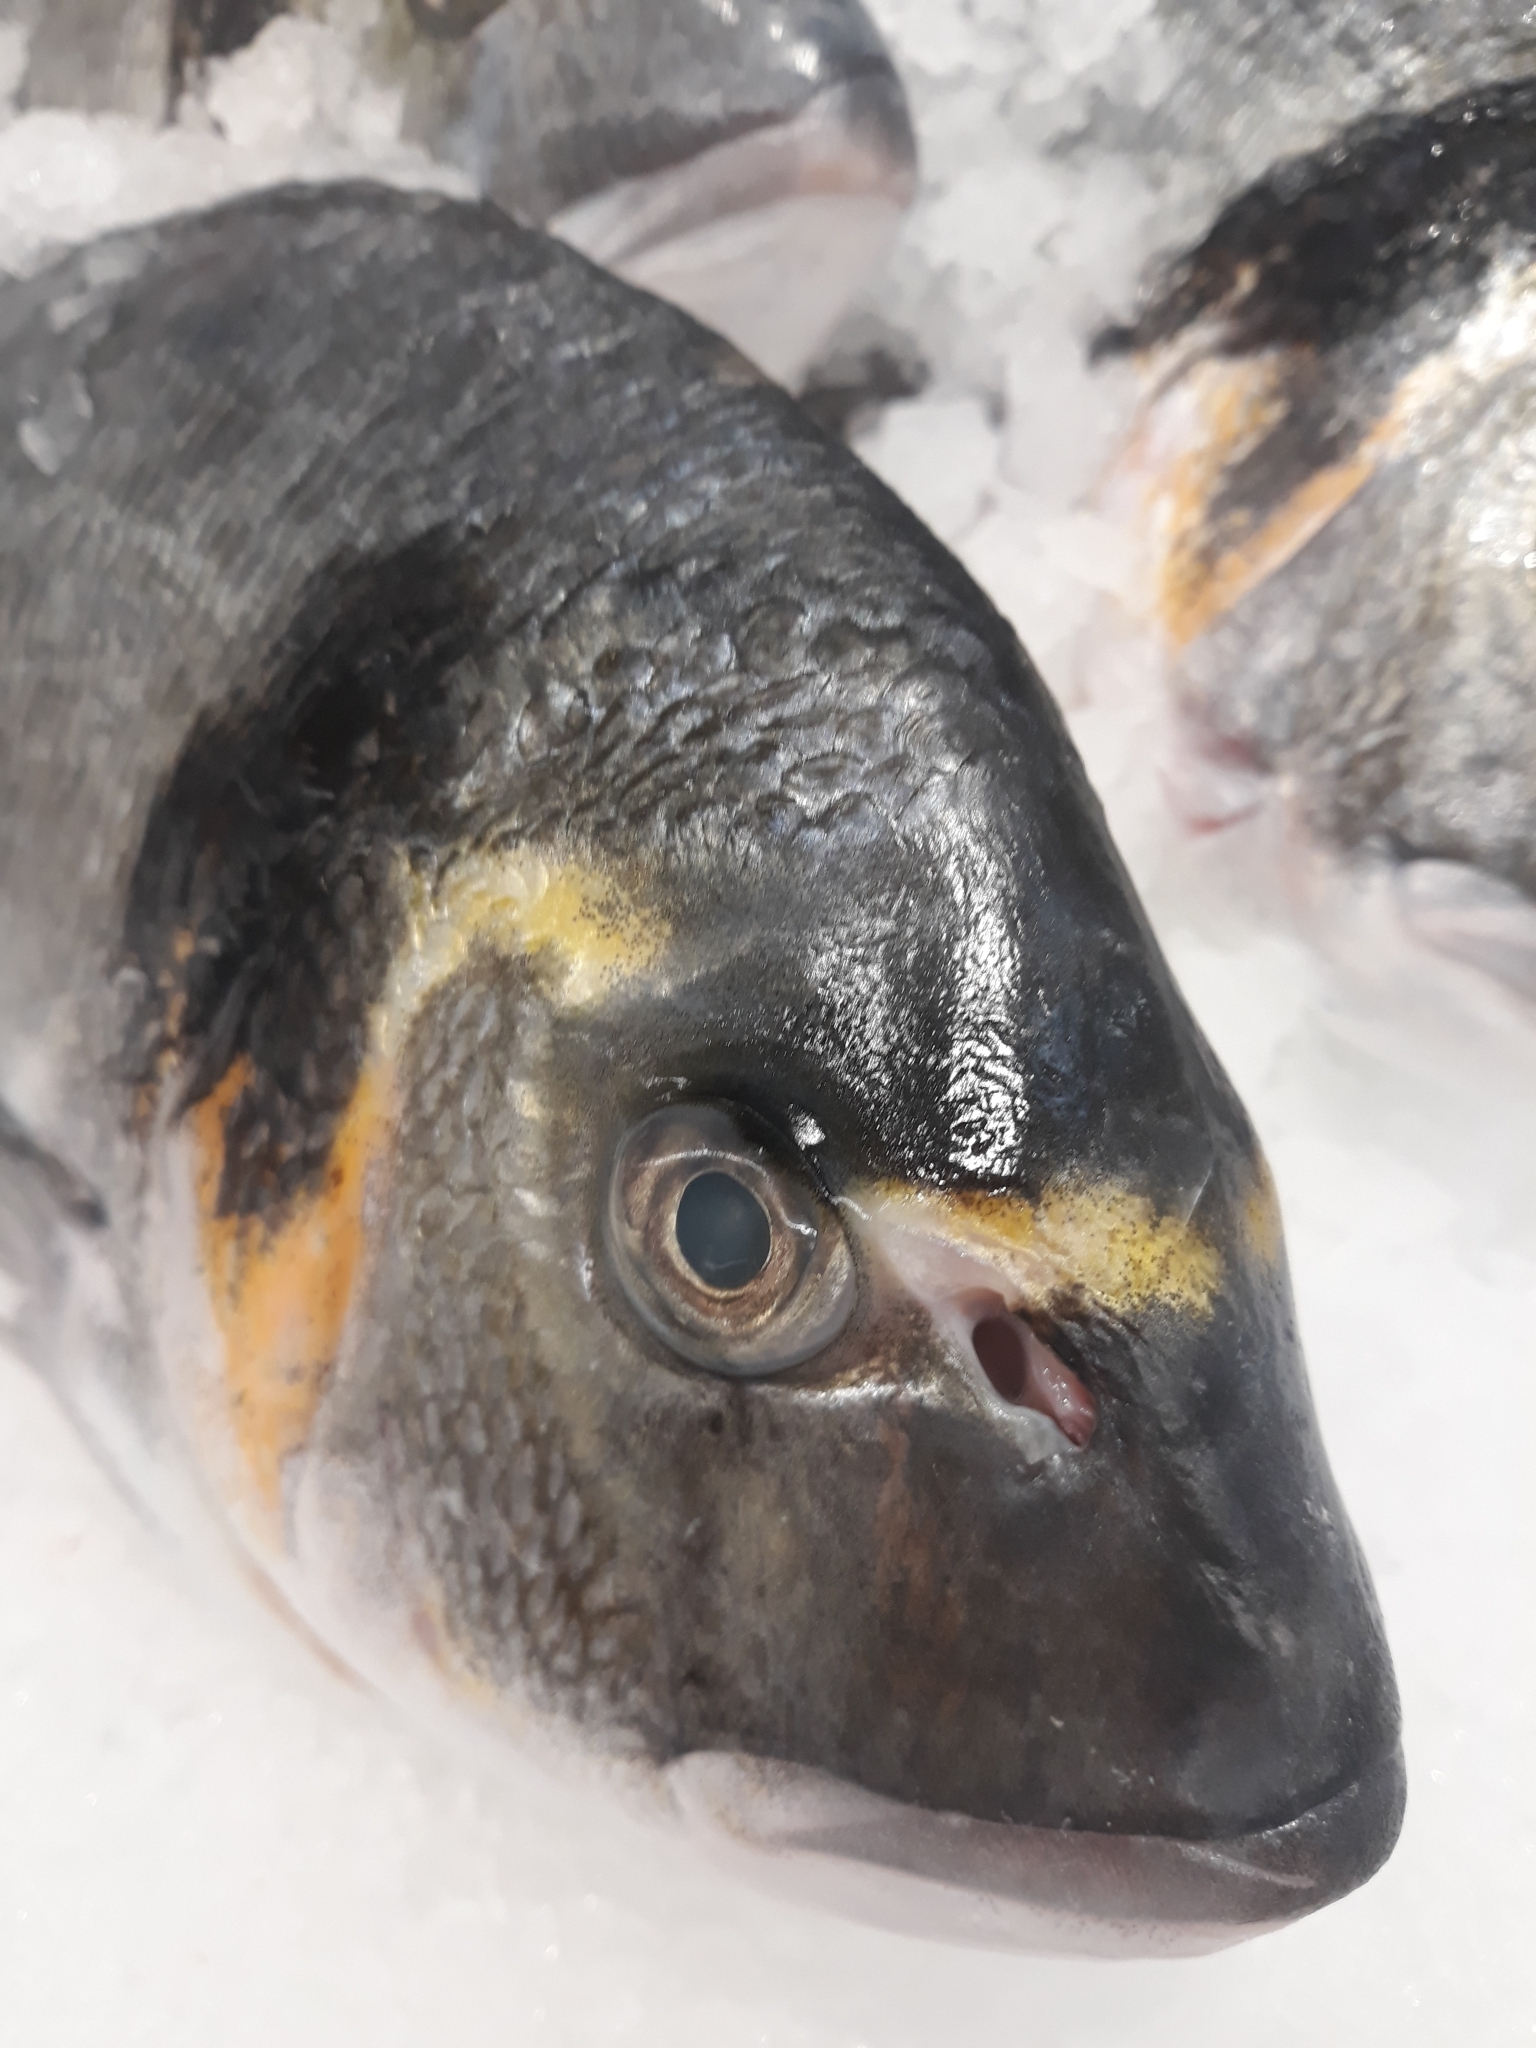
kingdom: Animalia
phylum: Chordata
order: Perciformes
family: Sparidae
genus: Sparus
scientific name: Sparus aurata
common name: Gilthead
